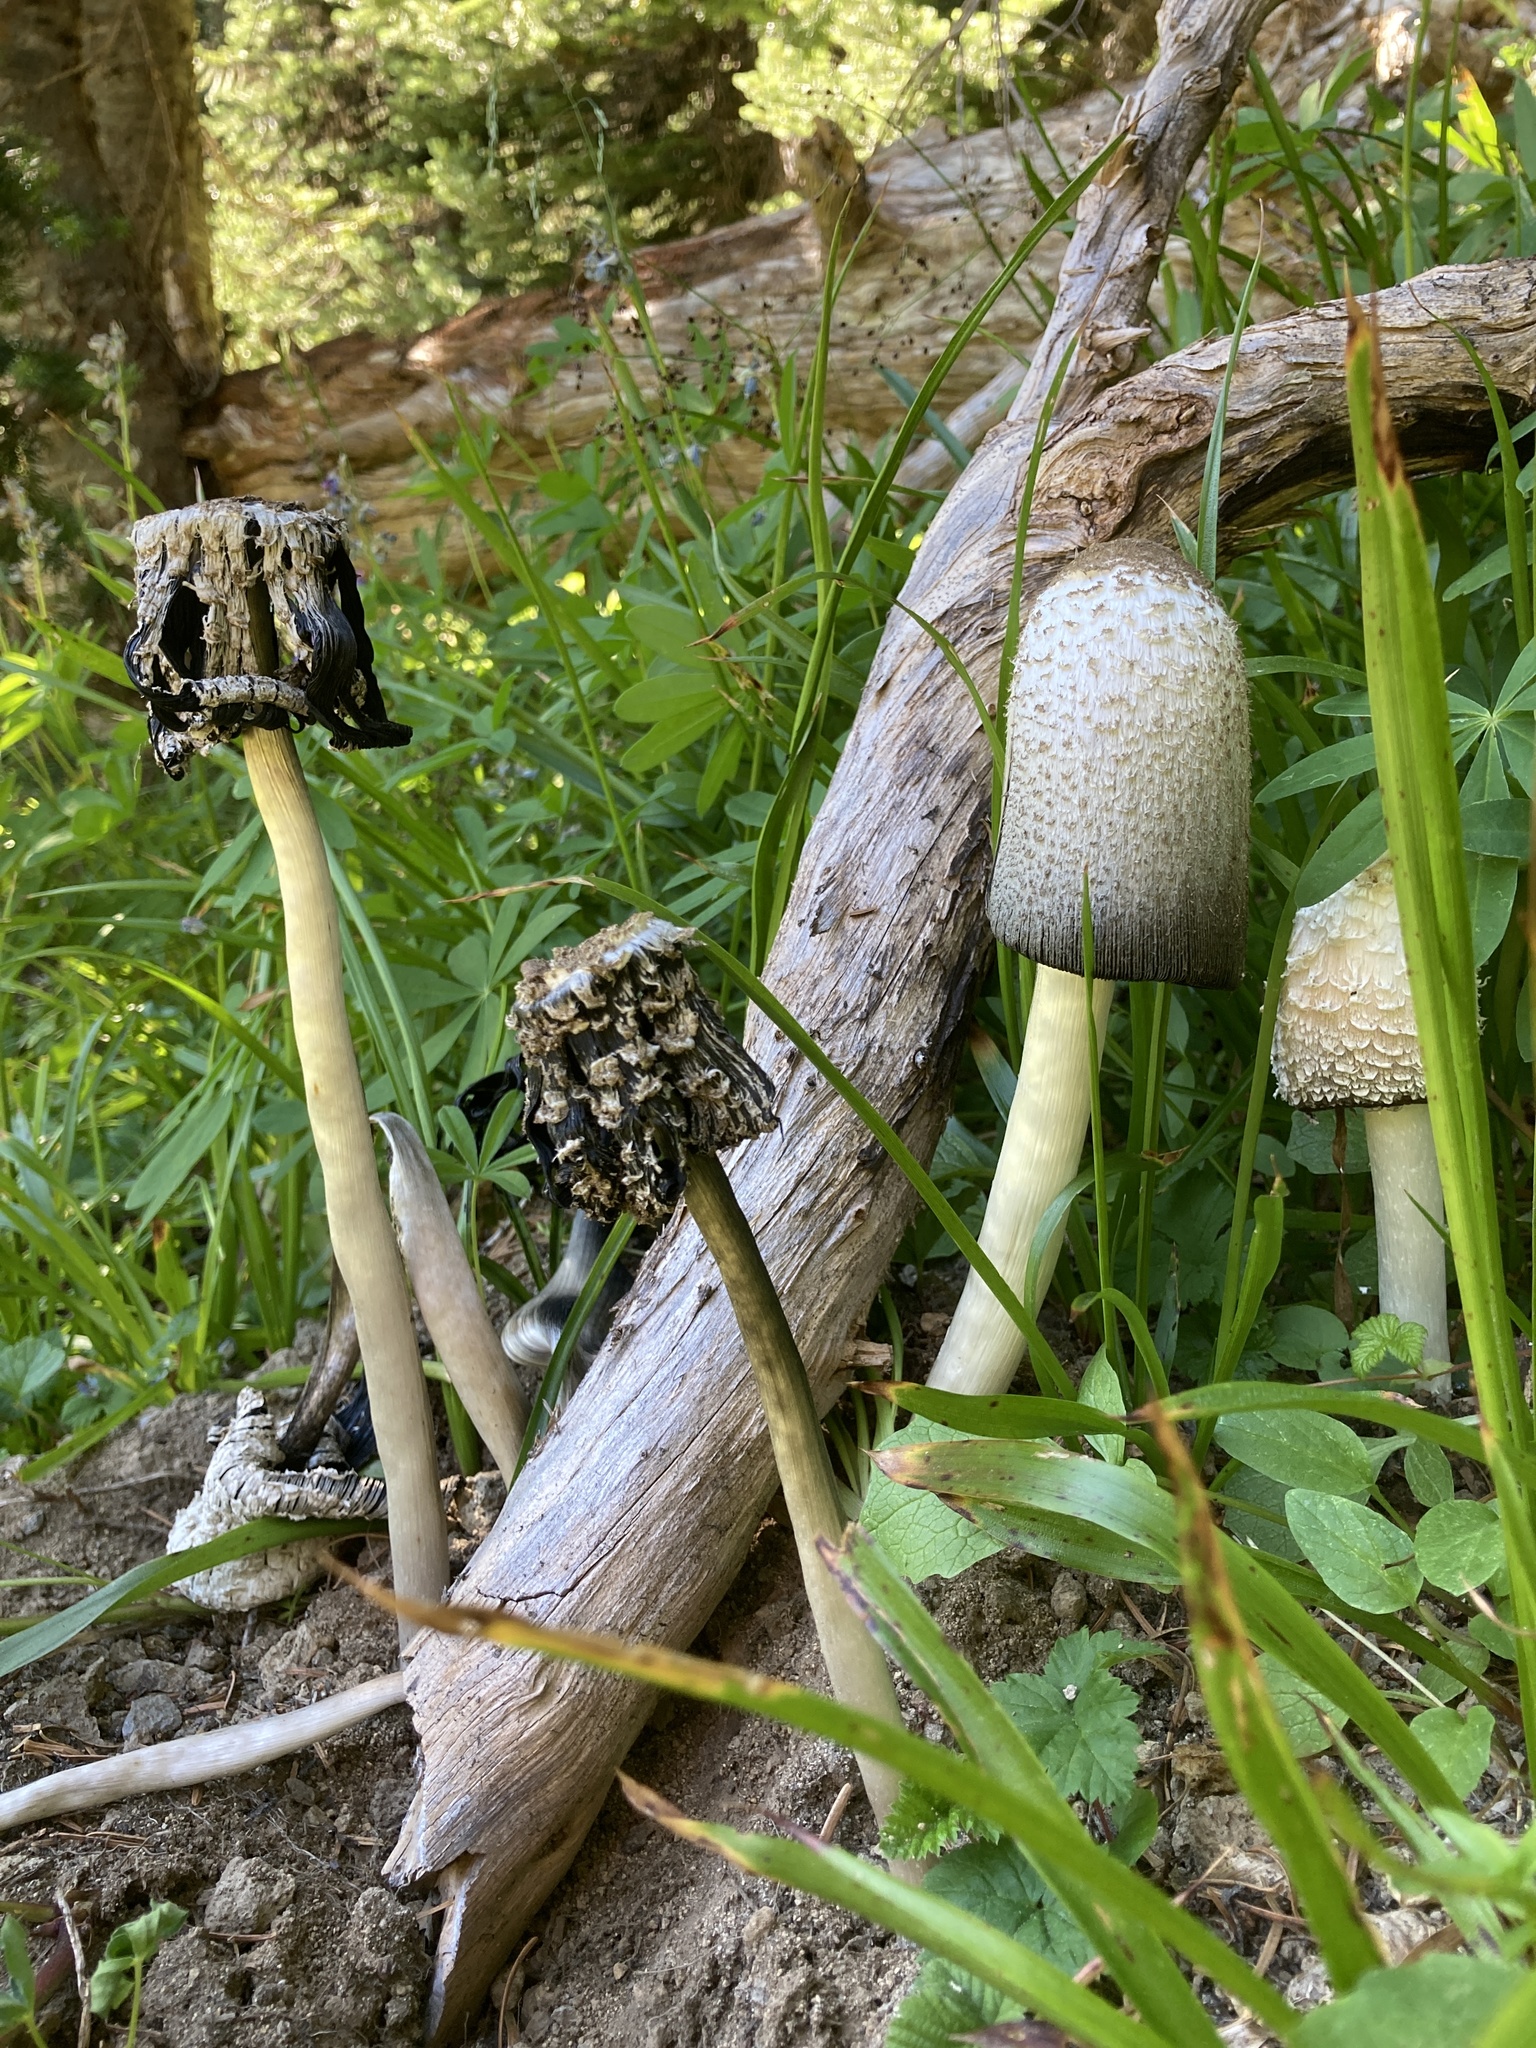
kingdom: Fungi
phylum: Basidiomycota
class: Agaricomycetes
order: Agaricales
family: Agaricaceae
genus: Coprinus
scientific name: Coprinus comatus
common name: Lawyer's wig
